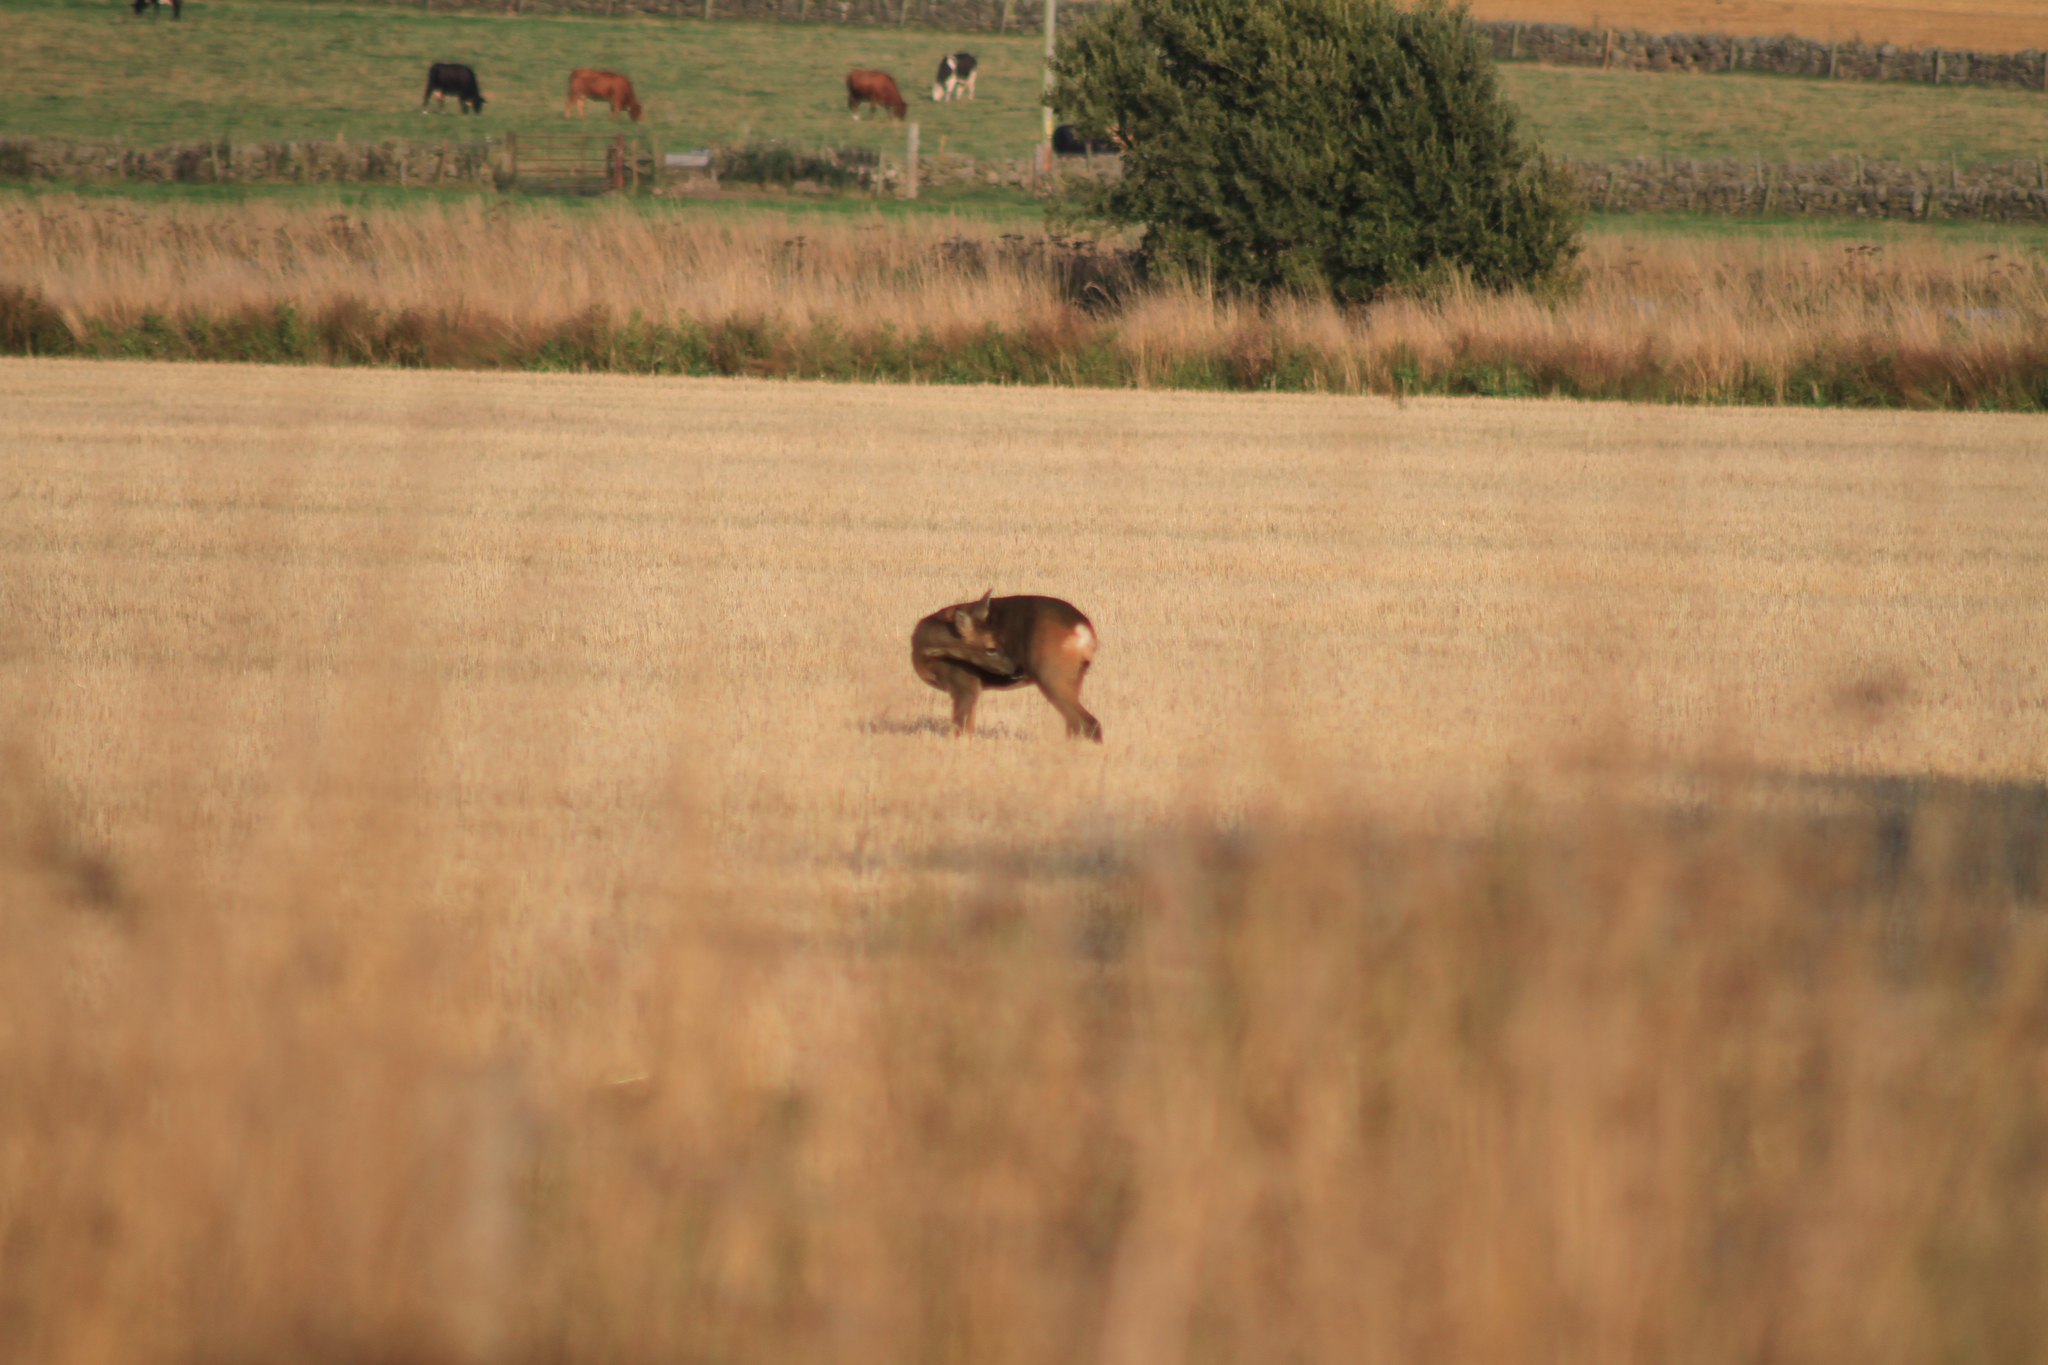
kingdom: Animalia
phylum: Chordata
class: Mammalia
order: Artiodactyla
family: Cervidae
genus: Capreolus
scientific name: Capreolus capreolus
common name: Western roe deer
